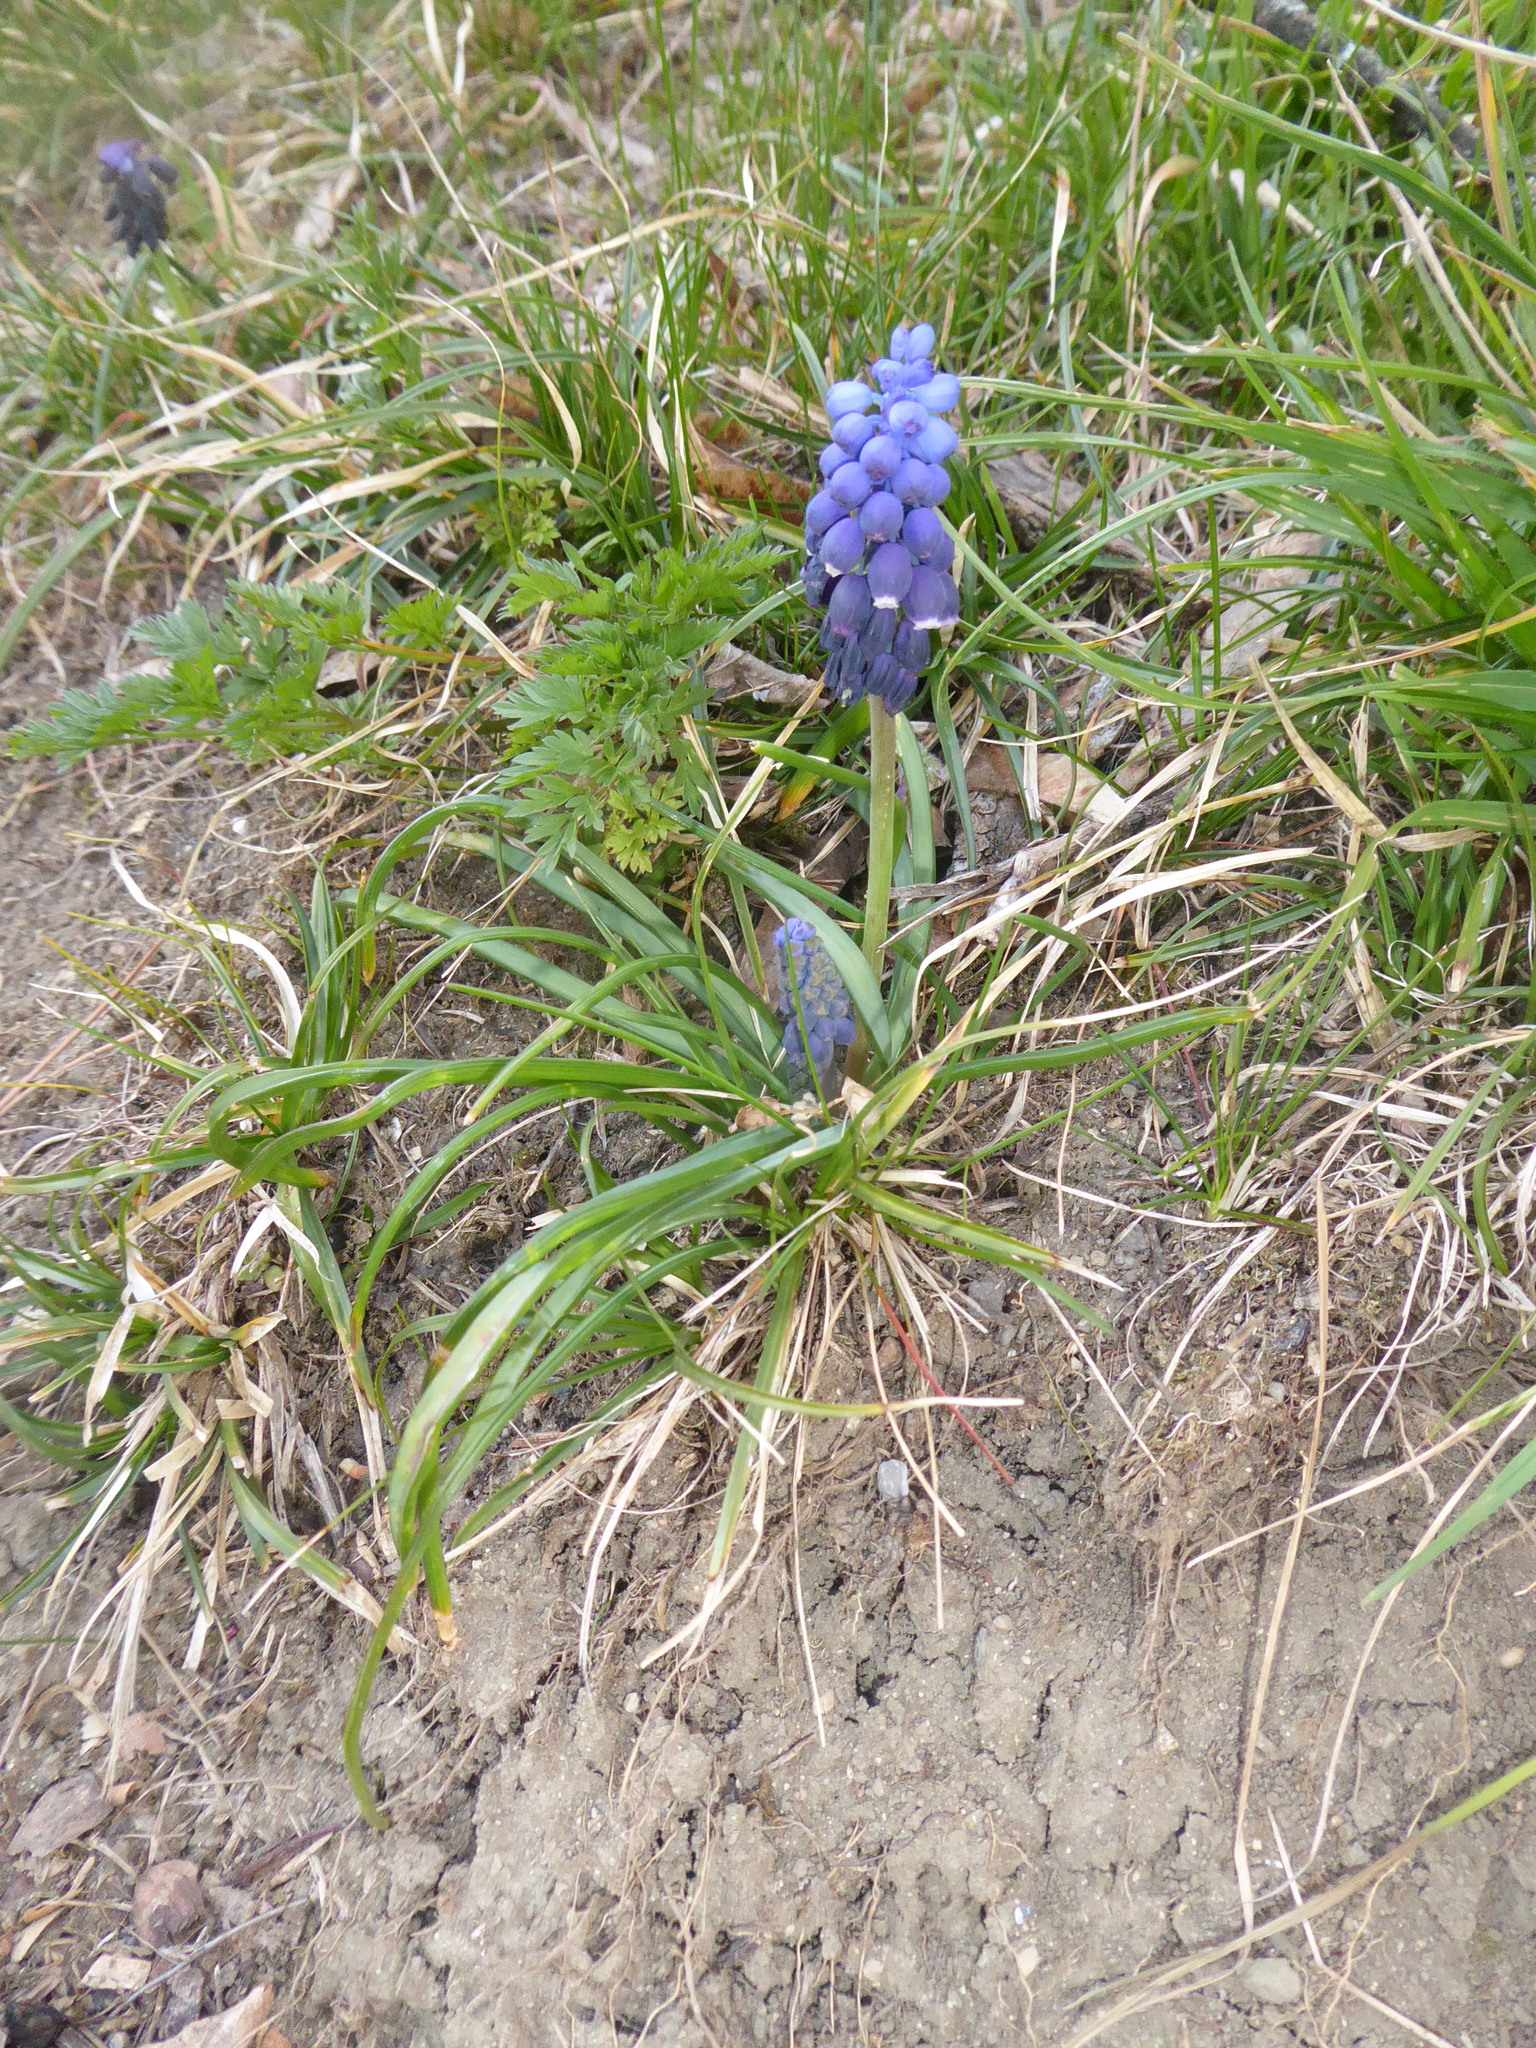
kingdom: Plantae
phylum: Tracheophyta
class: Liliopsida
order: Asparagales
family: Asparagaceae
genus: Muscari
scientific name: Muscari neglectum
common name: Grape-hyacinth
